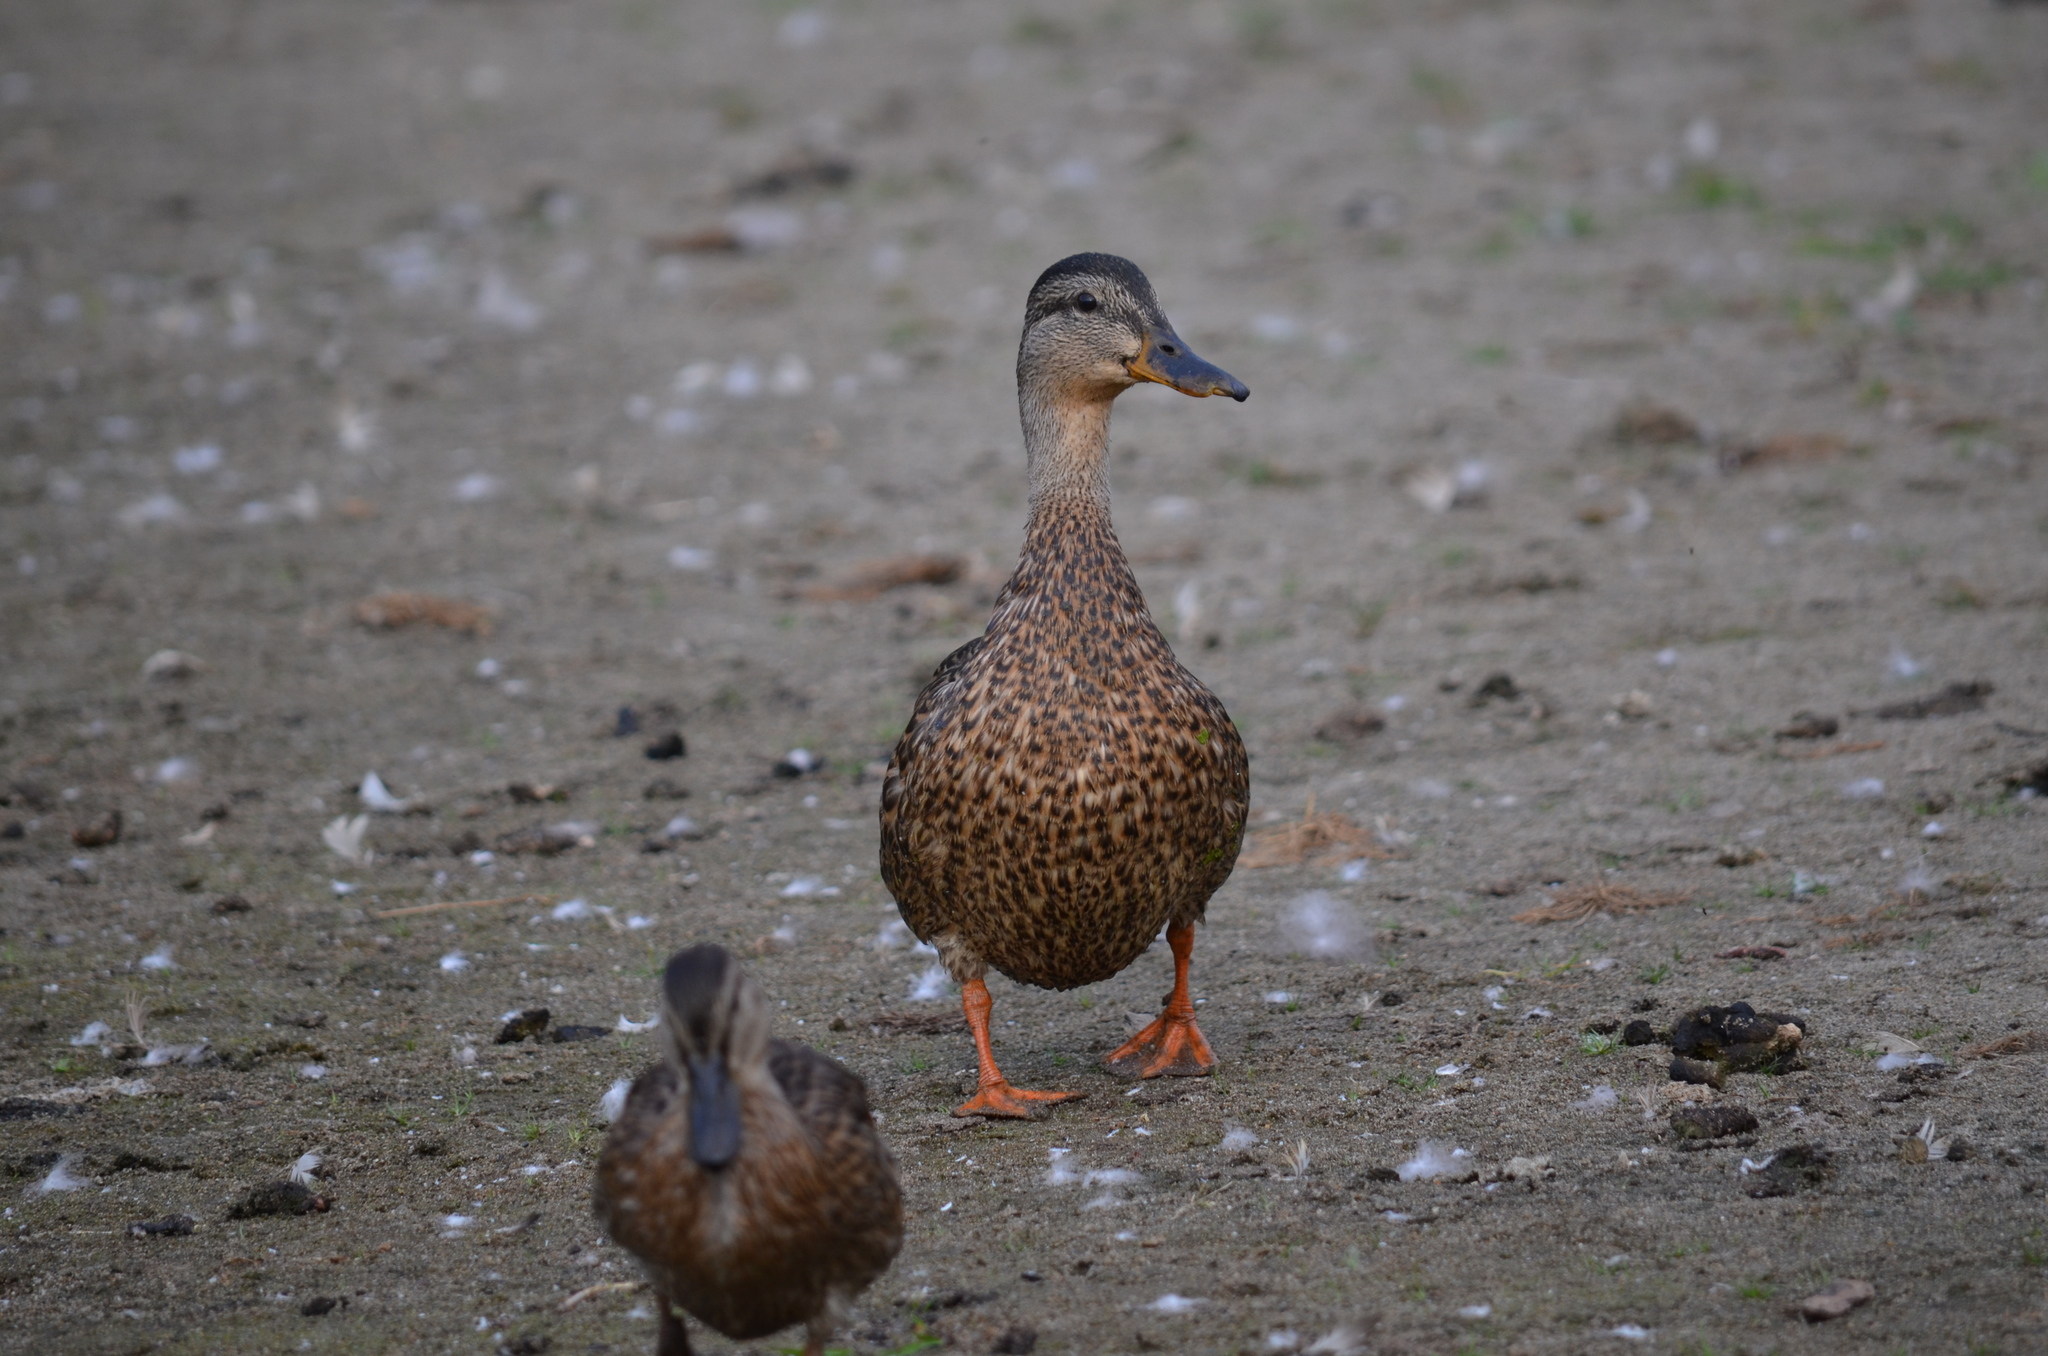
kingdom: Animalia
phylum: Chordata
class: Aves
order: Anseriformes
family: Anatidae
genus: Anas
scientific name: Anas platyrhynchos
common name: Mallard
